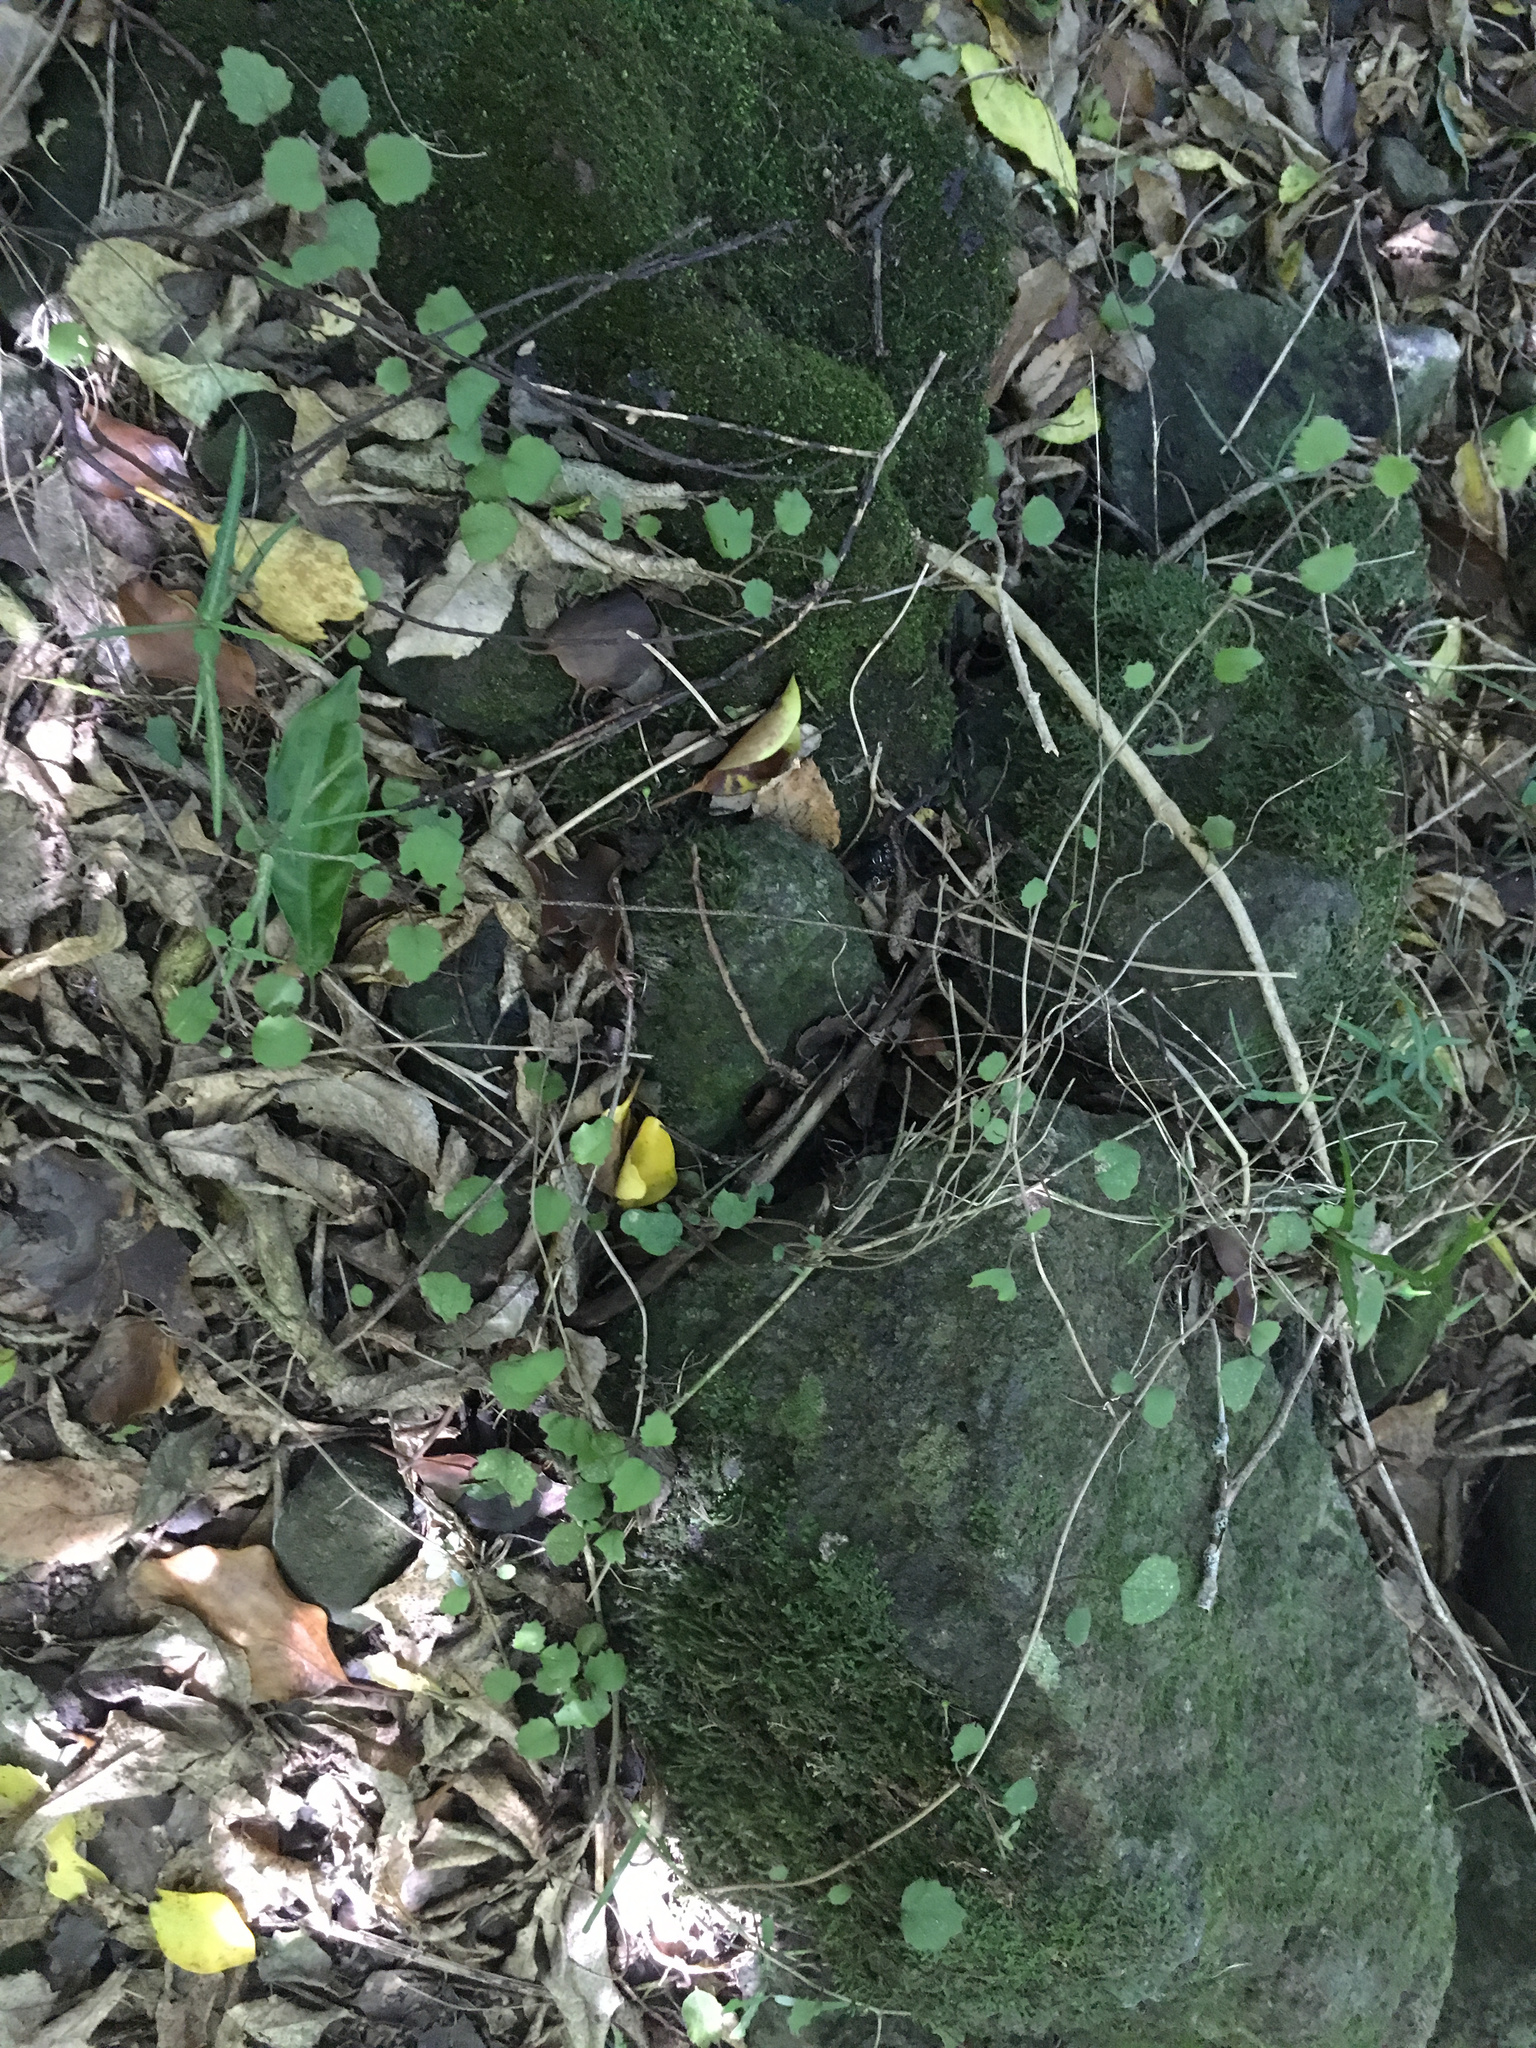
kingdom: Plantae
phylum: Tracheophyta
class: Magnoliopsida
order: Asterales
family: Asteraceae
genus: Brachyglottis
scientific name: Brachyglottis sciadophila
